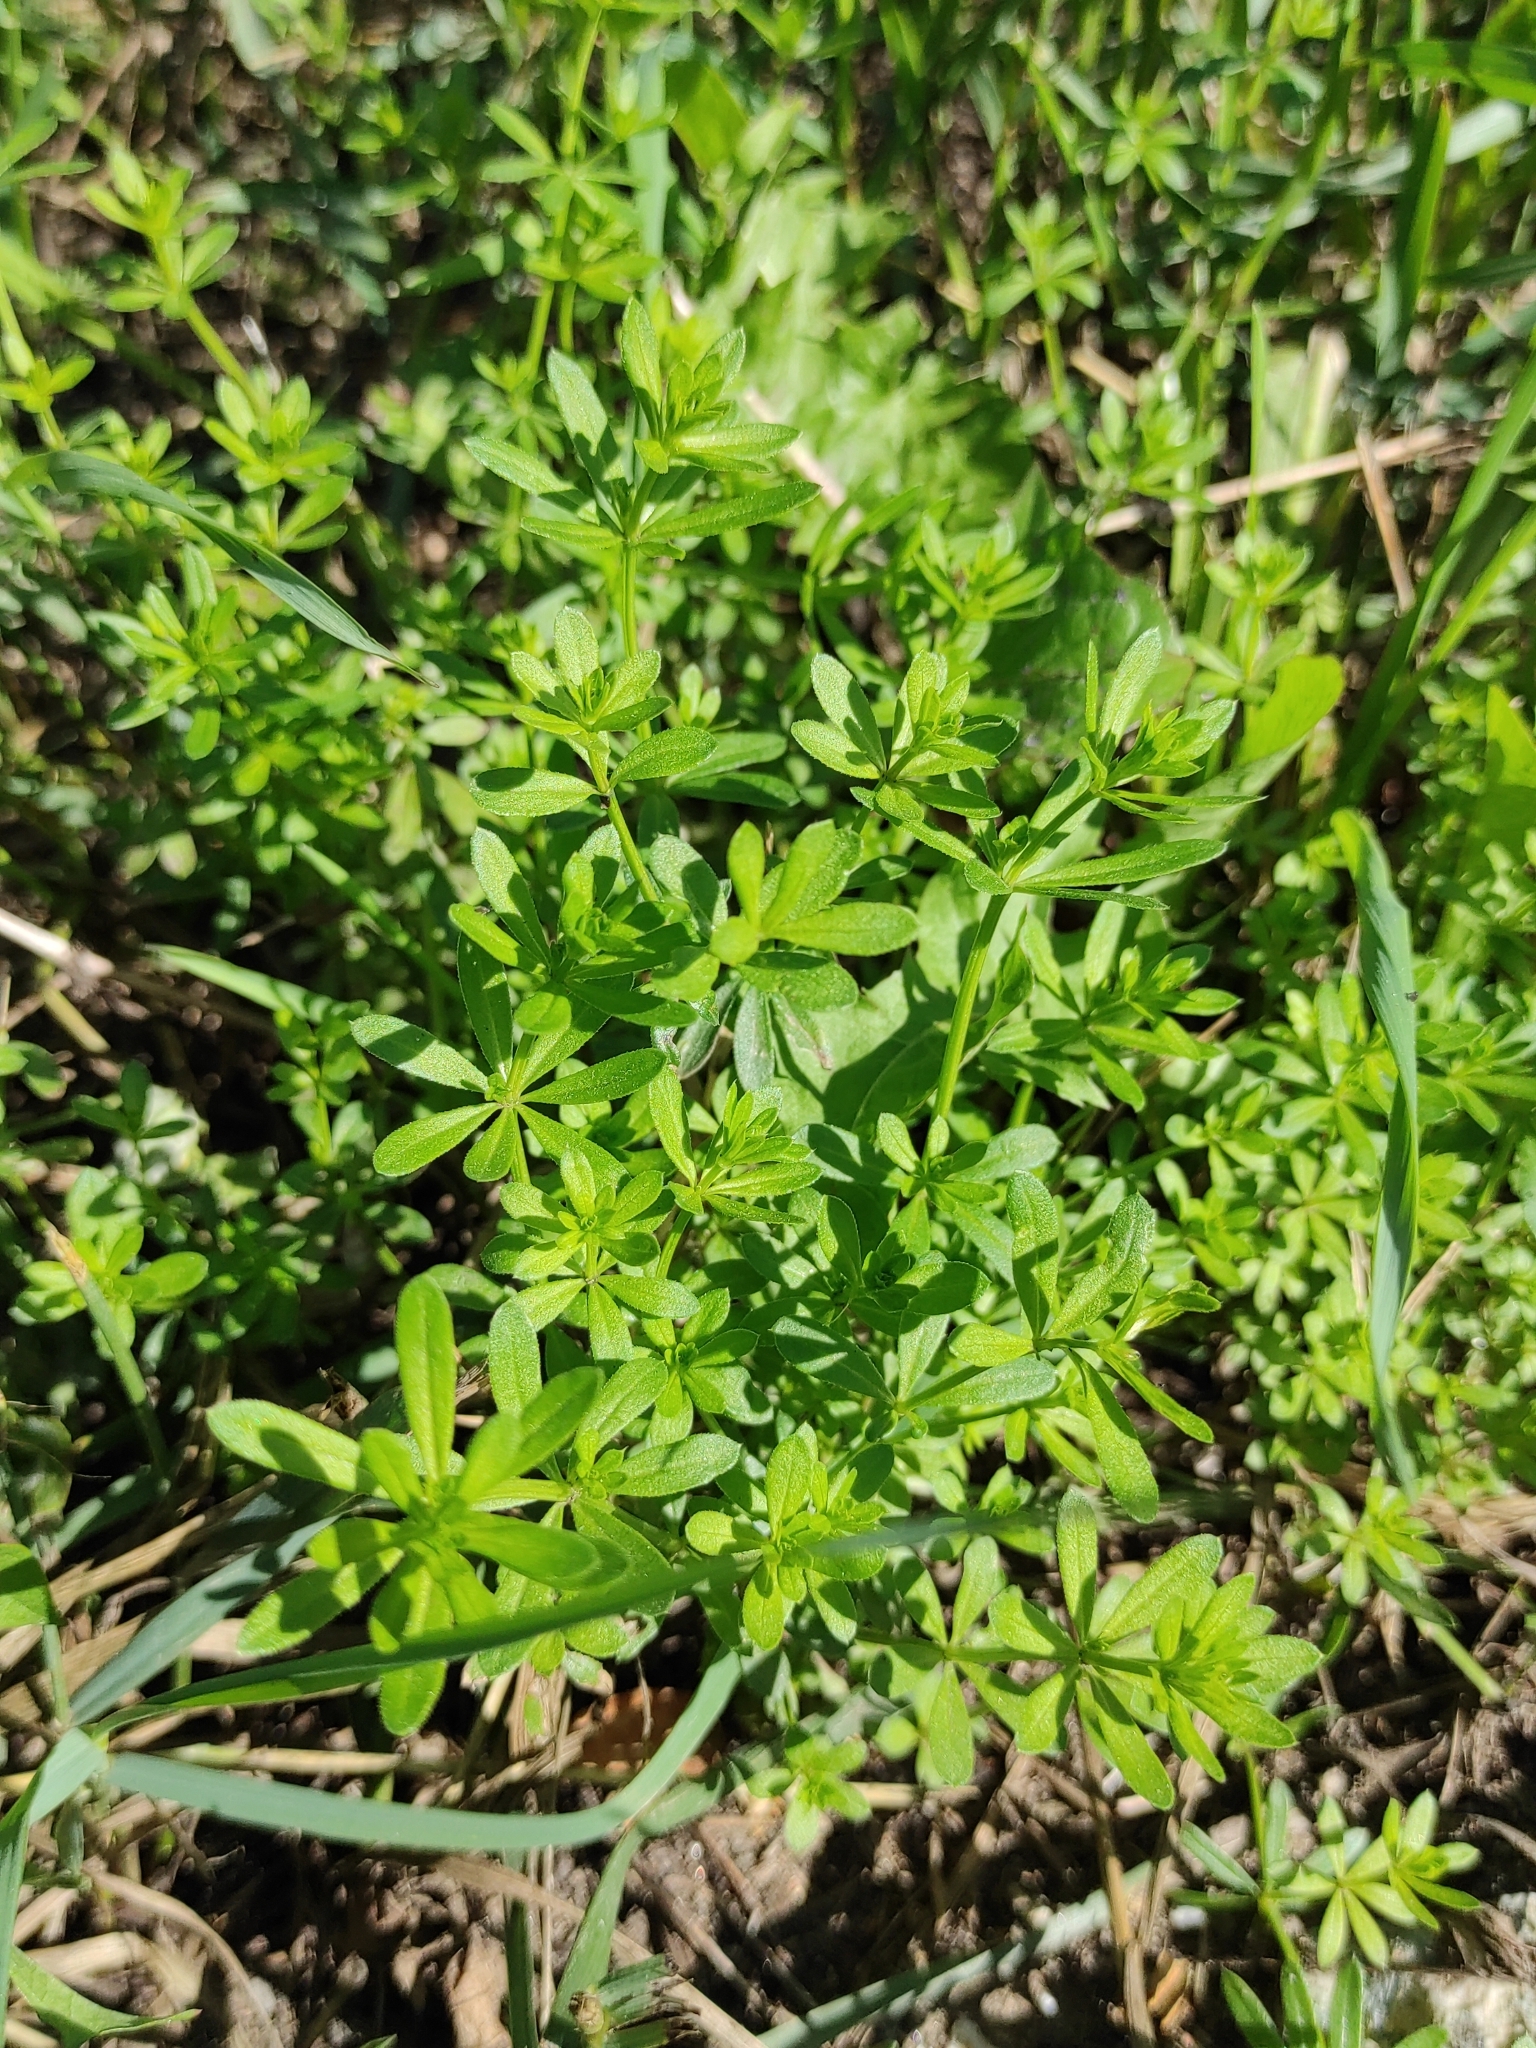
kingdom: Plantae
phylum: Tracheophyta
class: Magnoliopsida
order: Gentianales
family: Rubiaceae
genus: Galium
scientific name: Galium mollugo
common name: Hedge bedstraw
